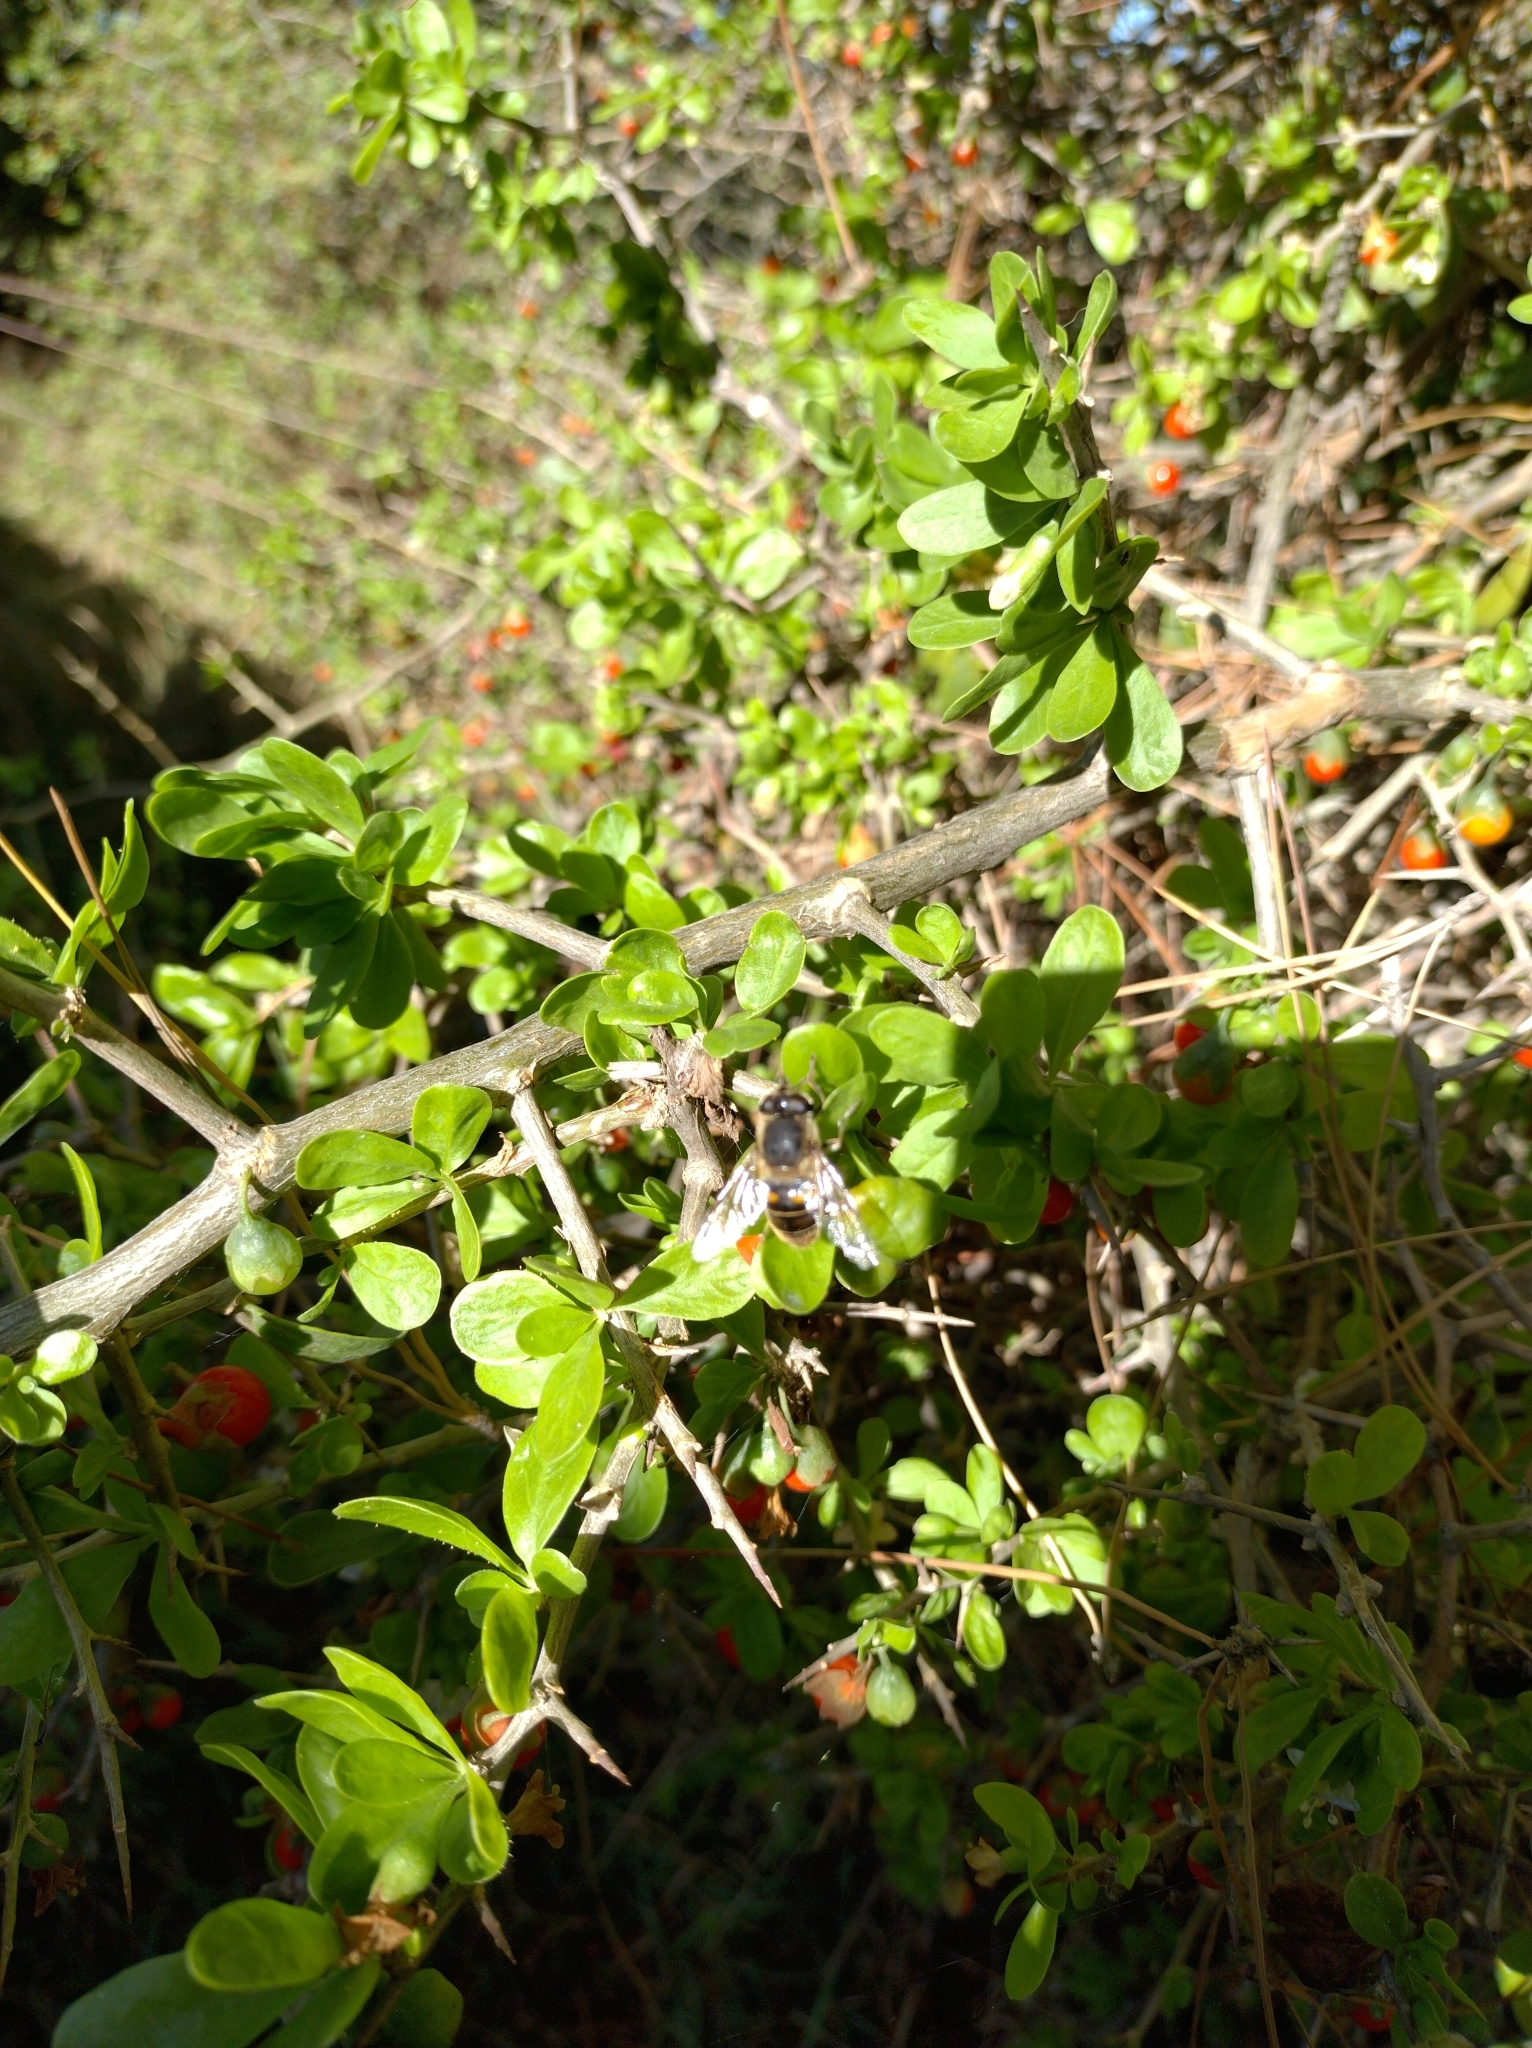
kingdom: Animalia
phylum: Arthropoda
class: Insecta
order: Diptera
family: Syrphidae
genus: Eristalis
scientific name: Eristalis tenax
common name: Drone fly
